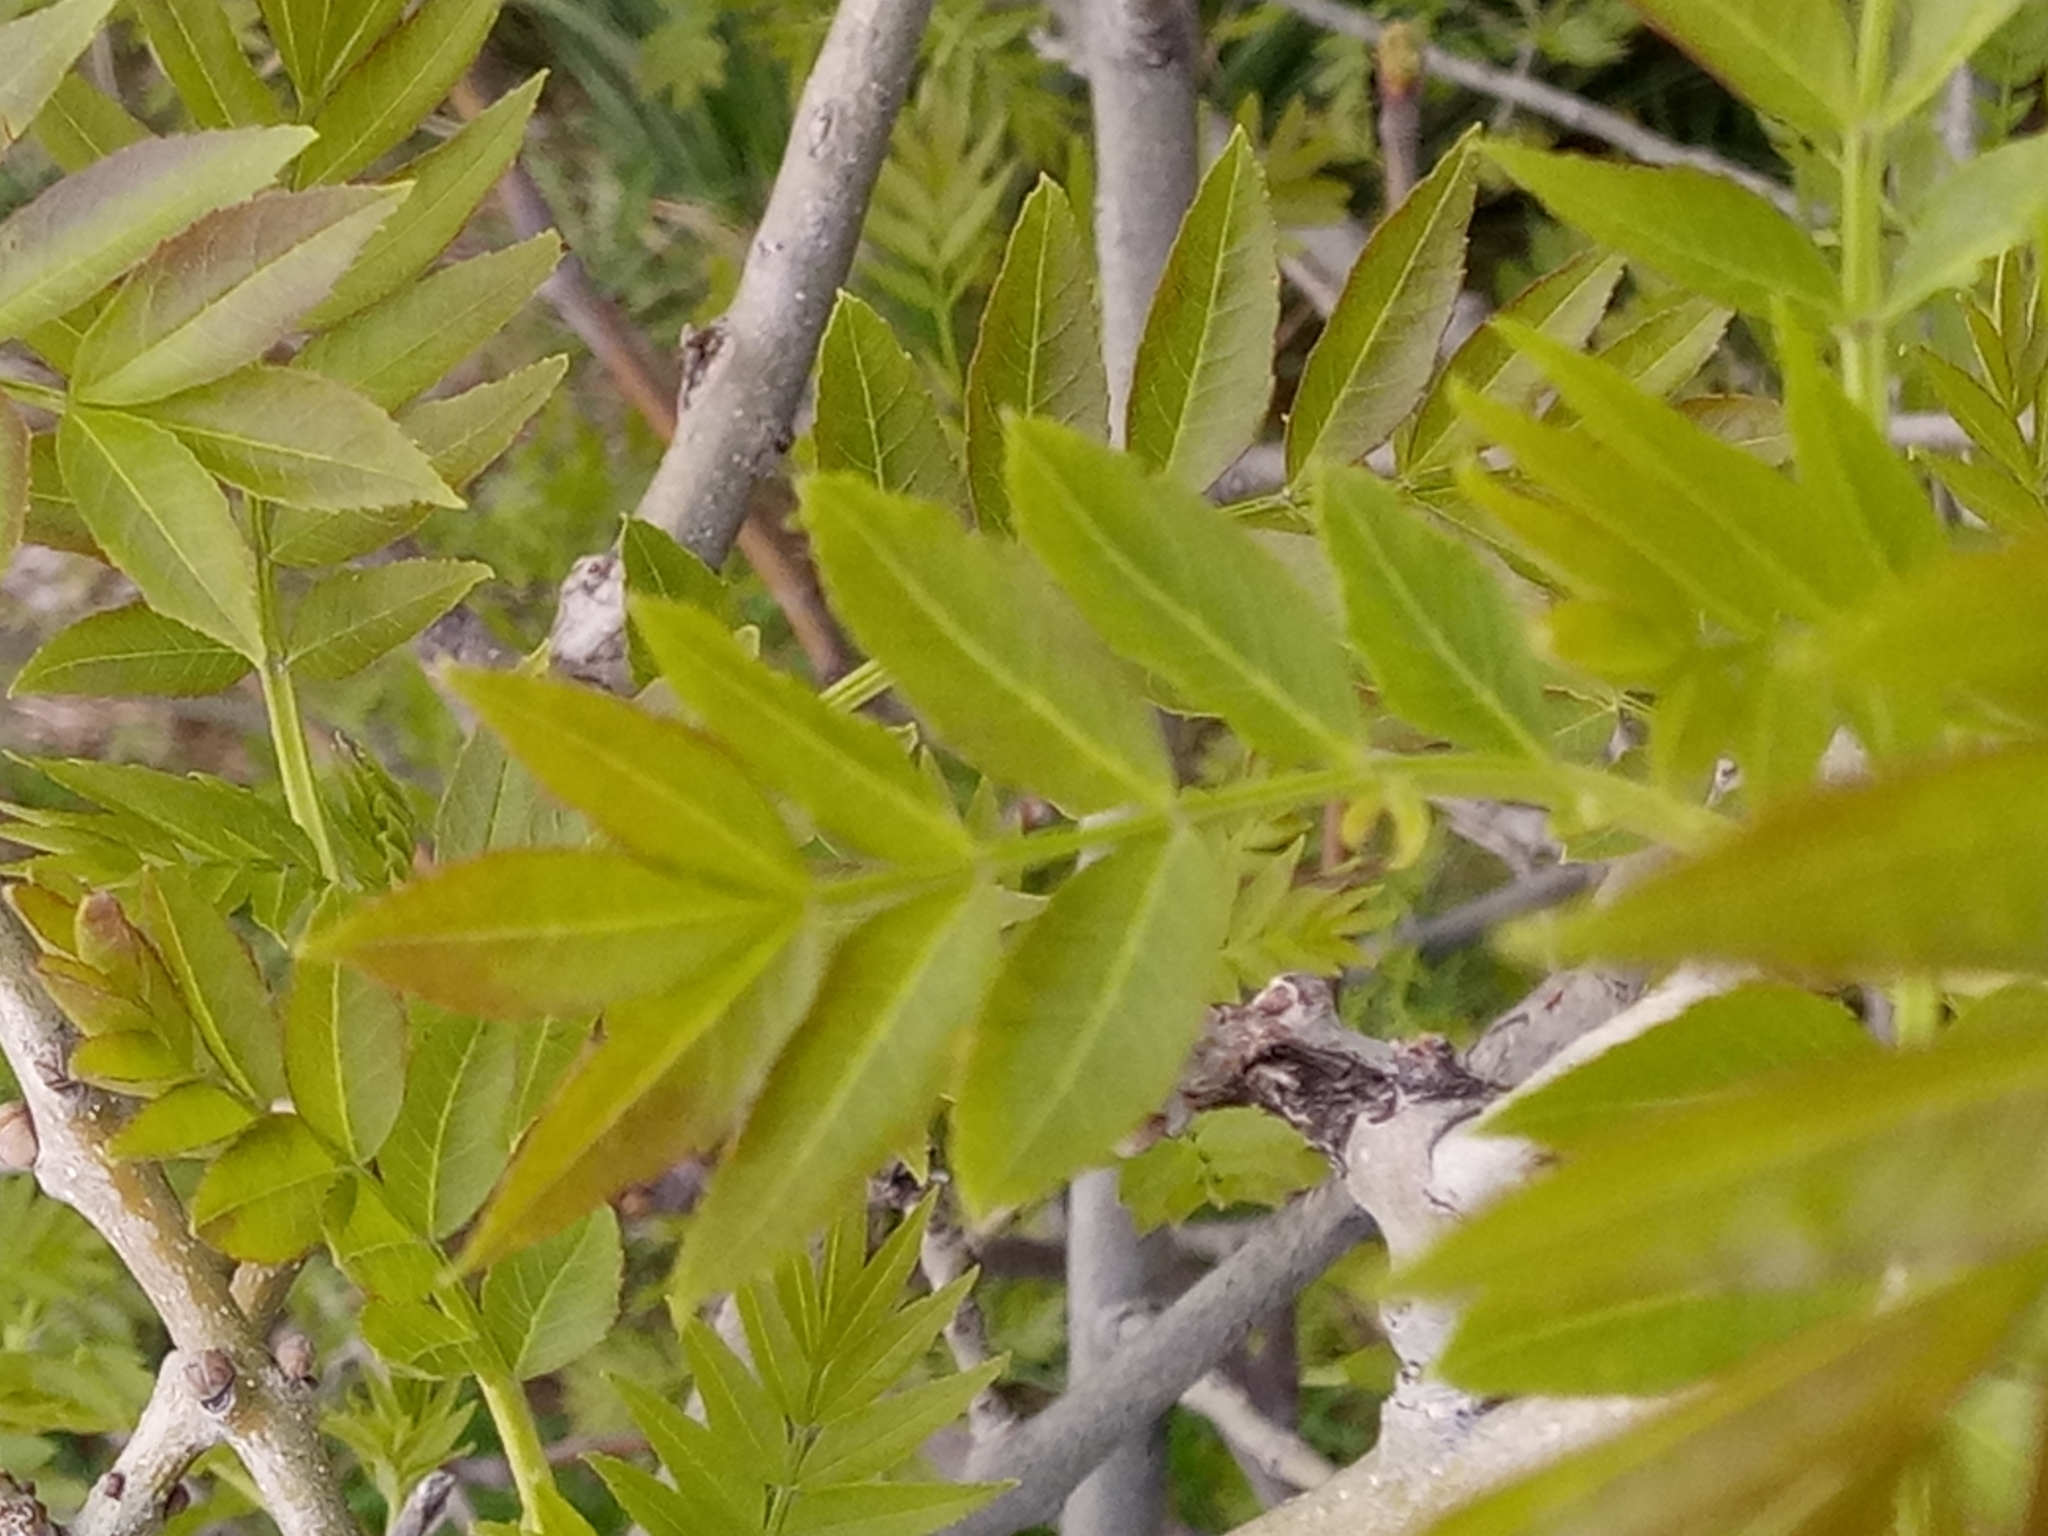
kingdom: Plantae
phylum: Tracheophyta
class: Magnoliopsida
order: Lamiales
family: Oleaceae
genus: Fraxinus
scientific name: Fraxinus angustifolia
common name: Narrow-leafed ash
